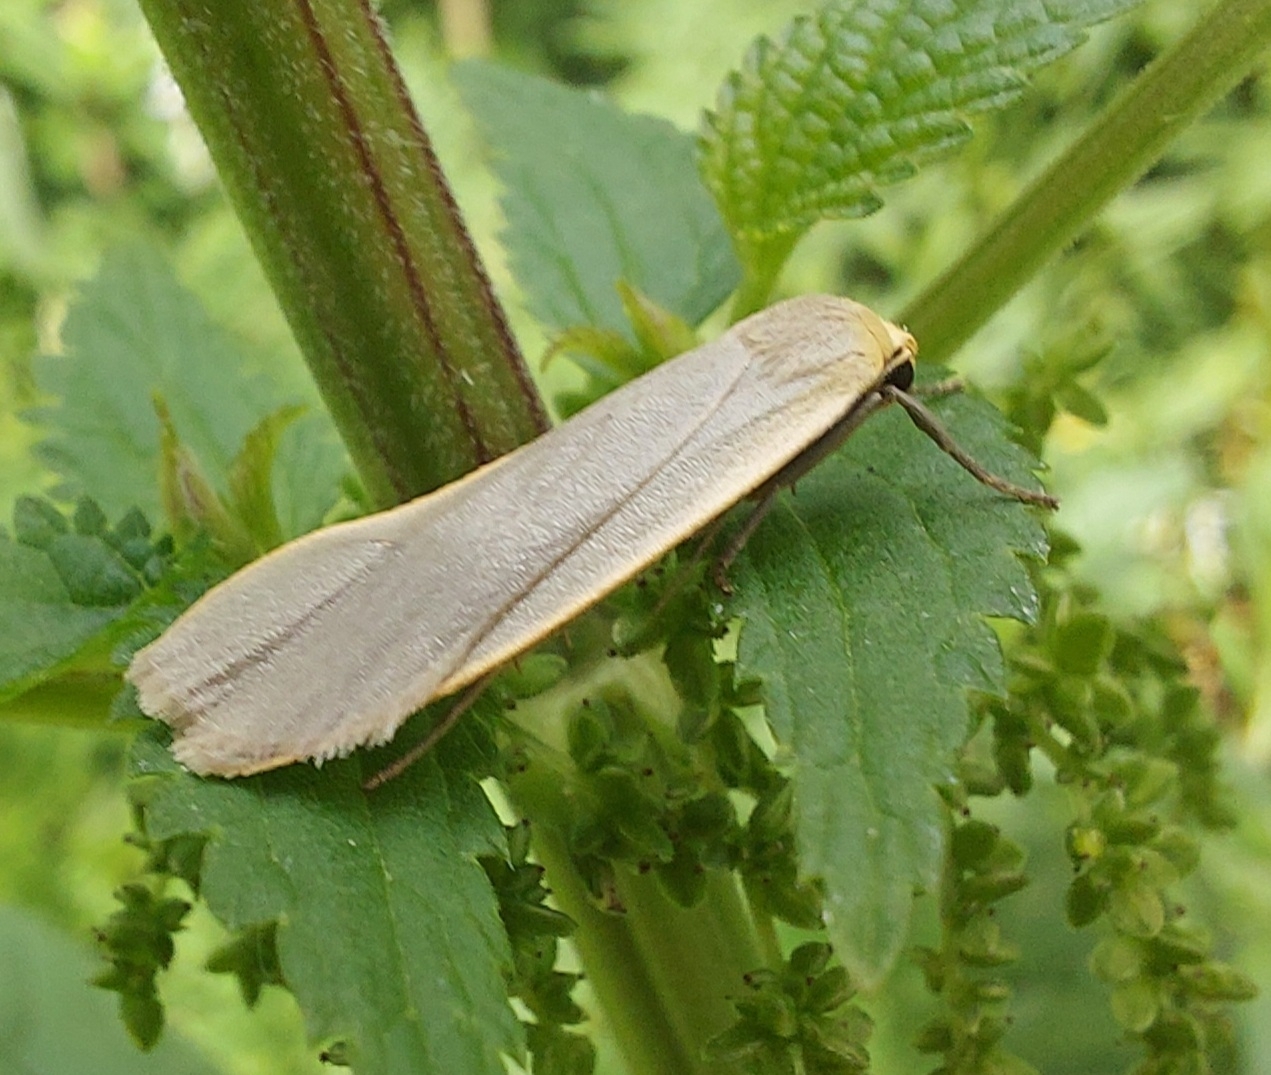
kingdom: Animalia
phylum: Arthropoda
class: Insecta
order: Lepidoptera
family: Erebidae
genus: Collita
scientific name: Collita griseola
